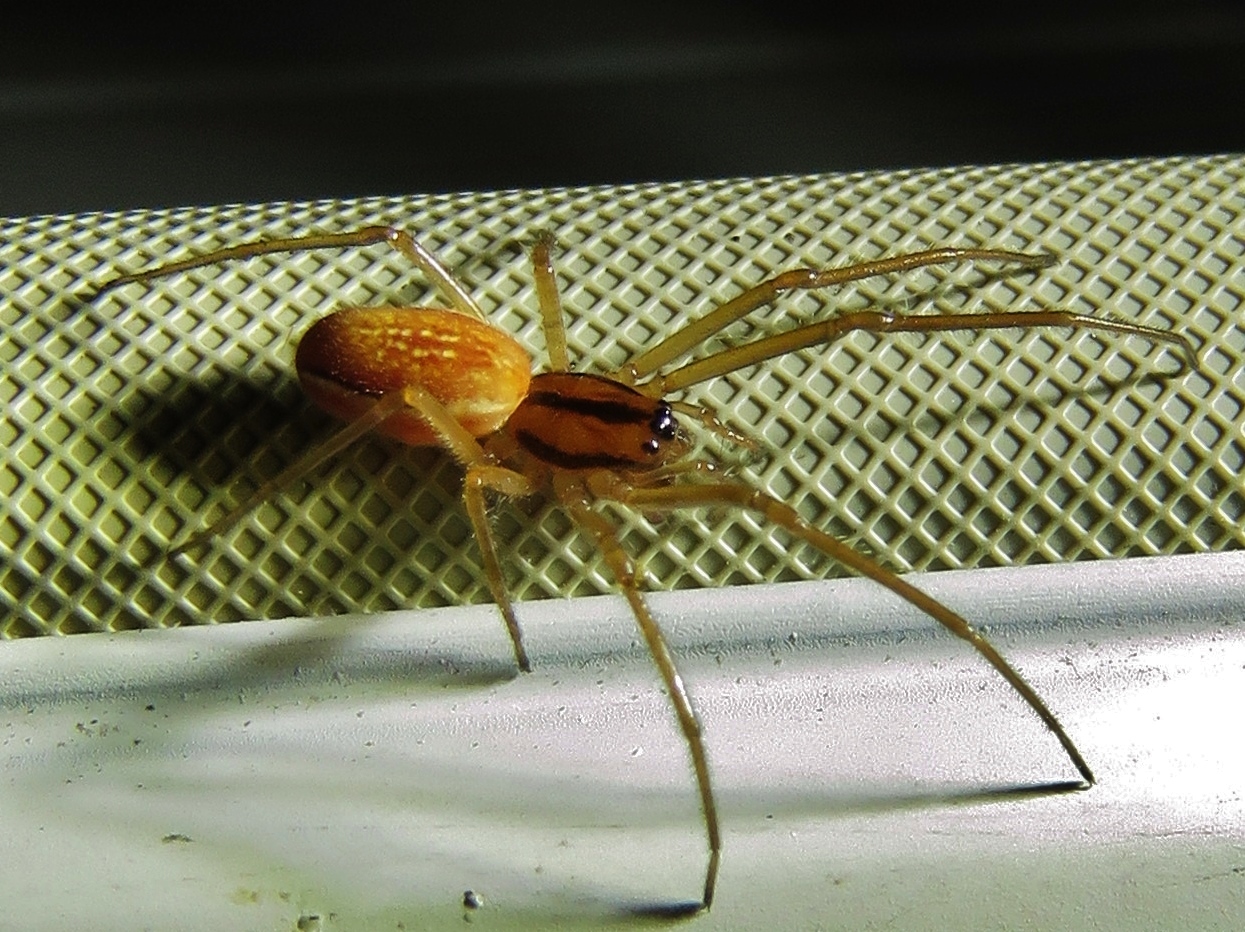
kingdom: Animalia
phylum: Arthropoda
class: Arachnida
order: Araneae
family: Tetragnathidae
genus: Pachygnatha
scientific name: Pachygnatha tristriata
